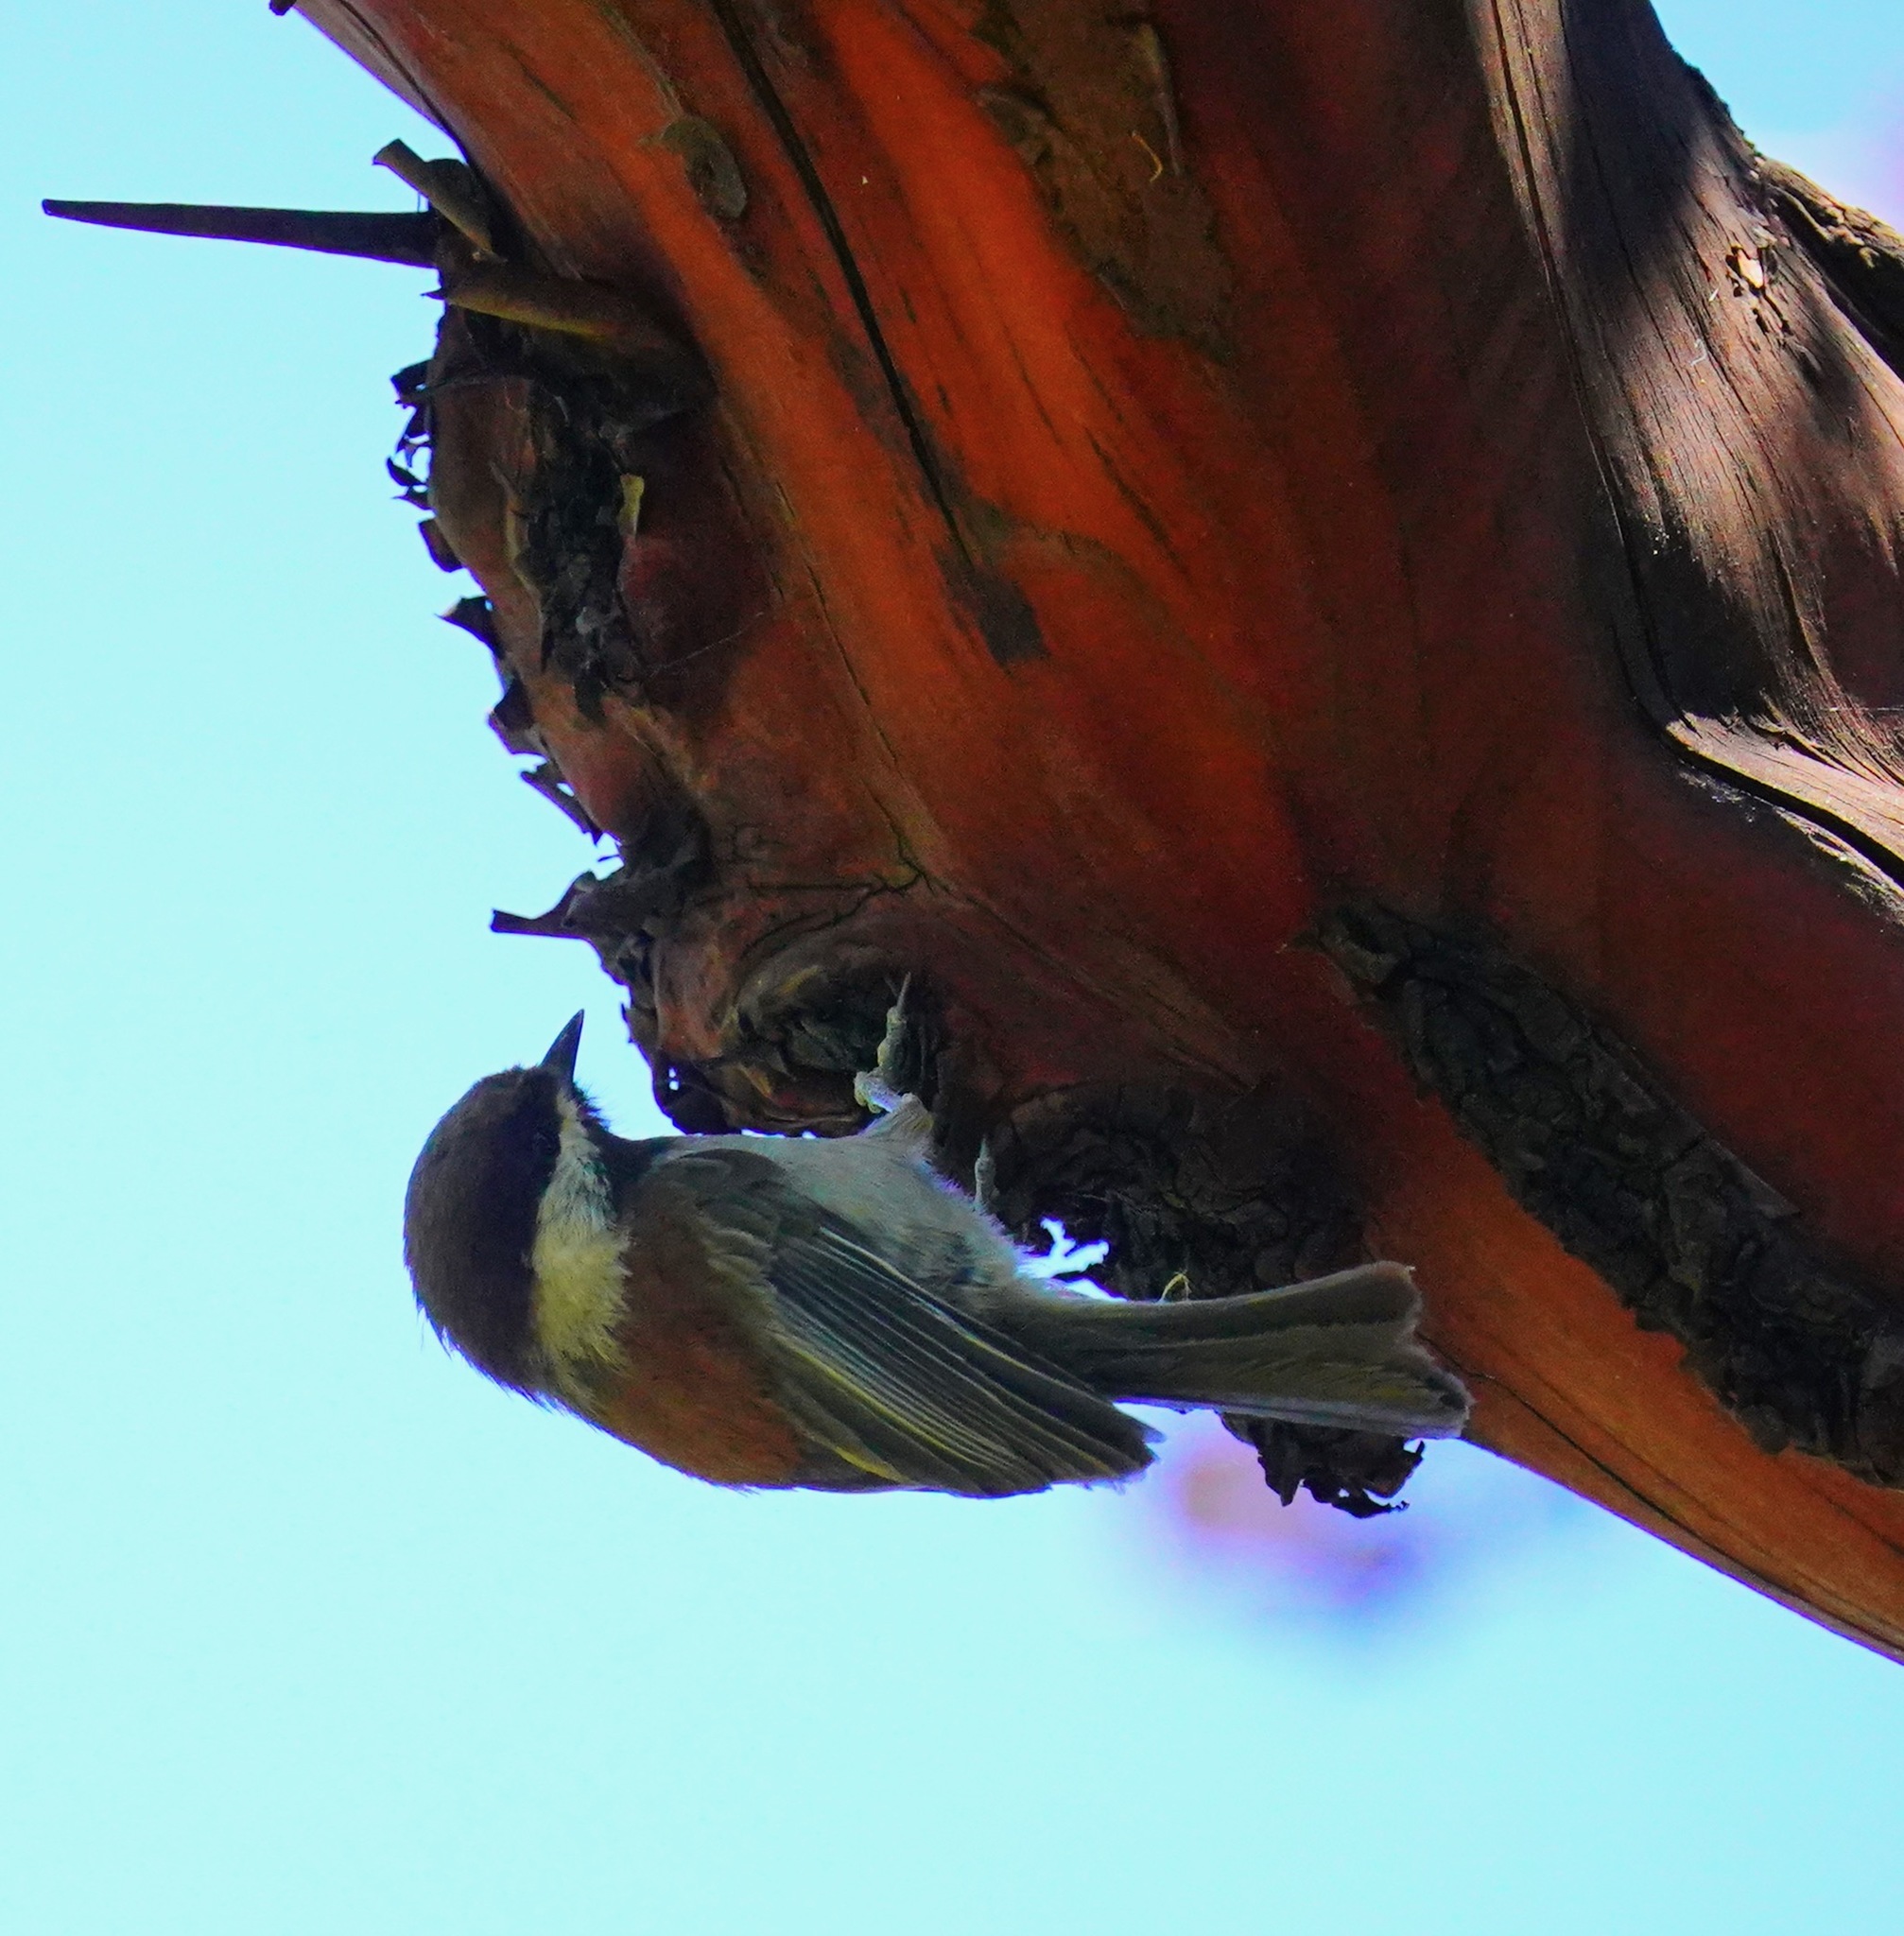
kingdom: Animalia
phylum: Chordata
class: Aves
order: Passeriformes
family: Paridae
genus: Poecile
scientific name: Poecile rufescens
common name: Chestnut-backed chickadee
